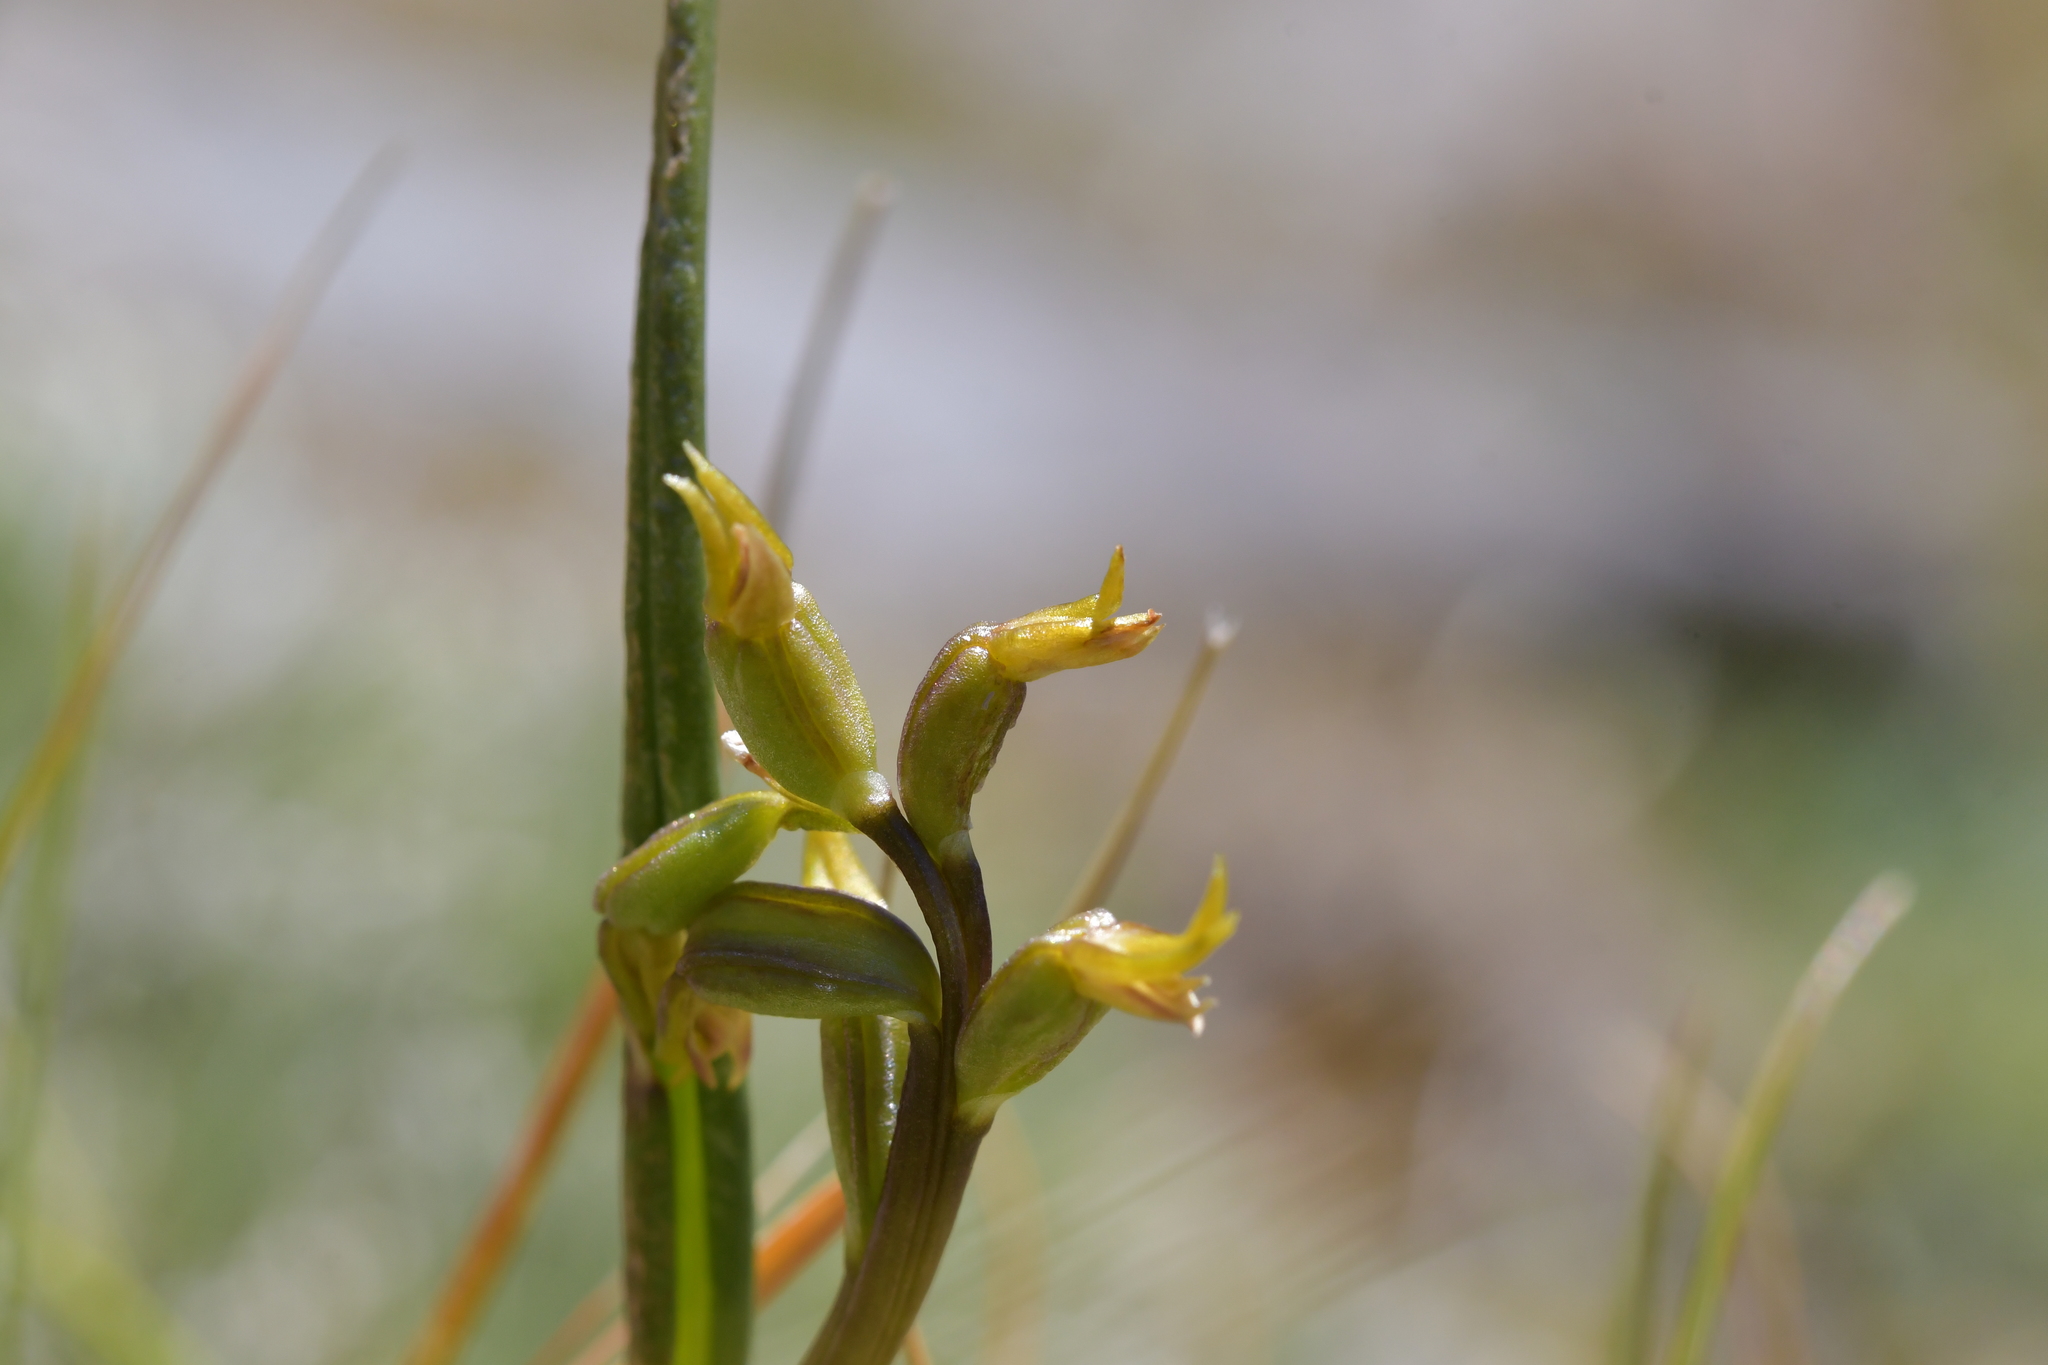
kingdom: Plantae
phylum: Tracheophyta
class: Liliopsida
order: Asparagales
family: Orchidaceae
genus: Prasophyllum
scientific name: Prasophyllum colensoi
